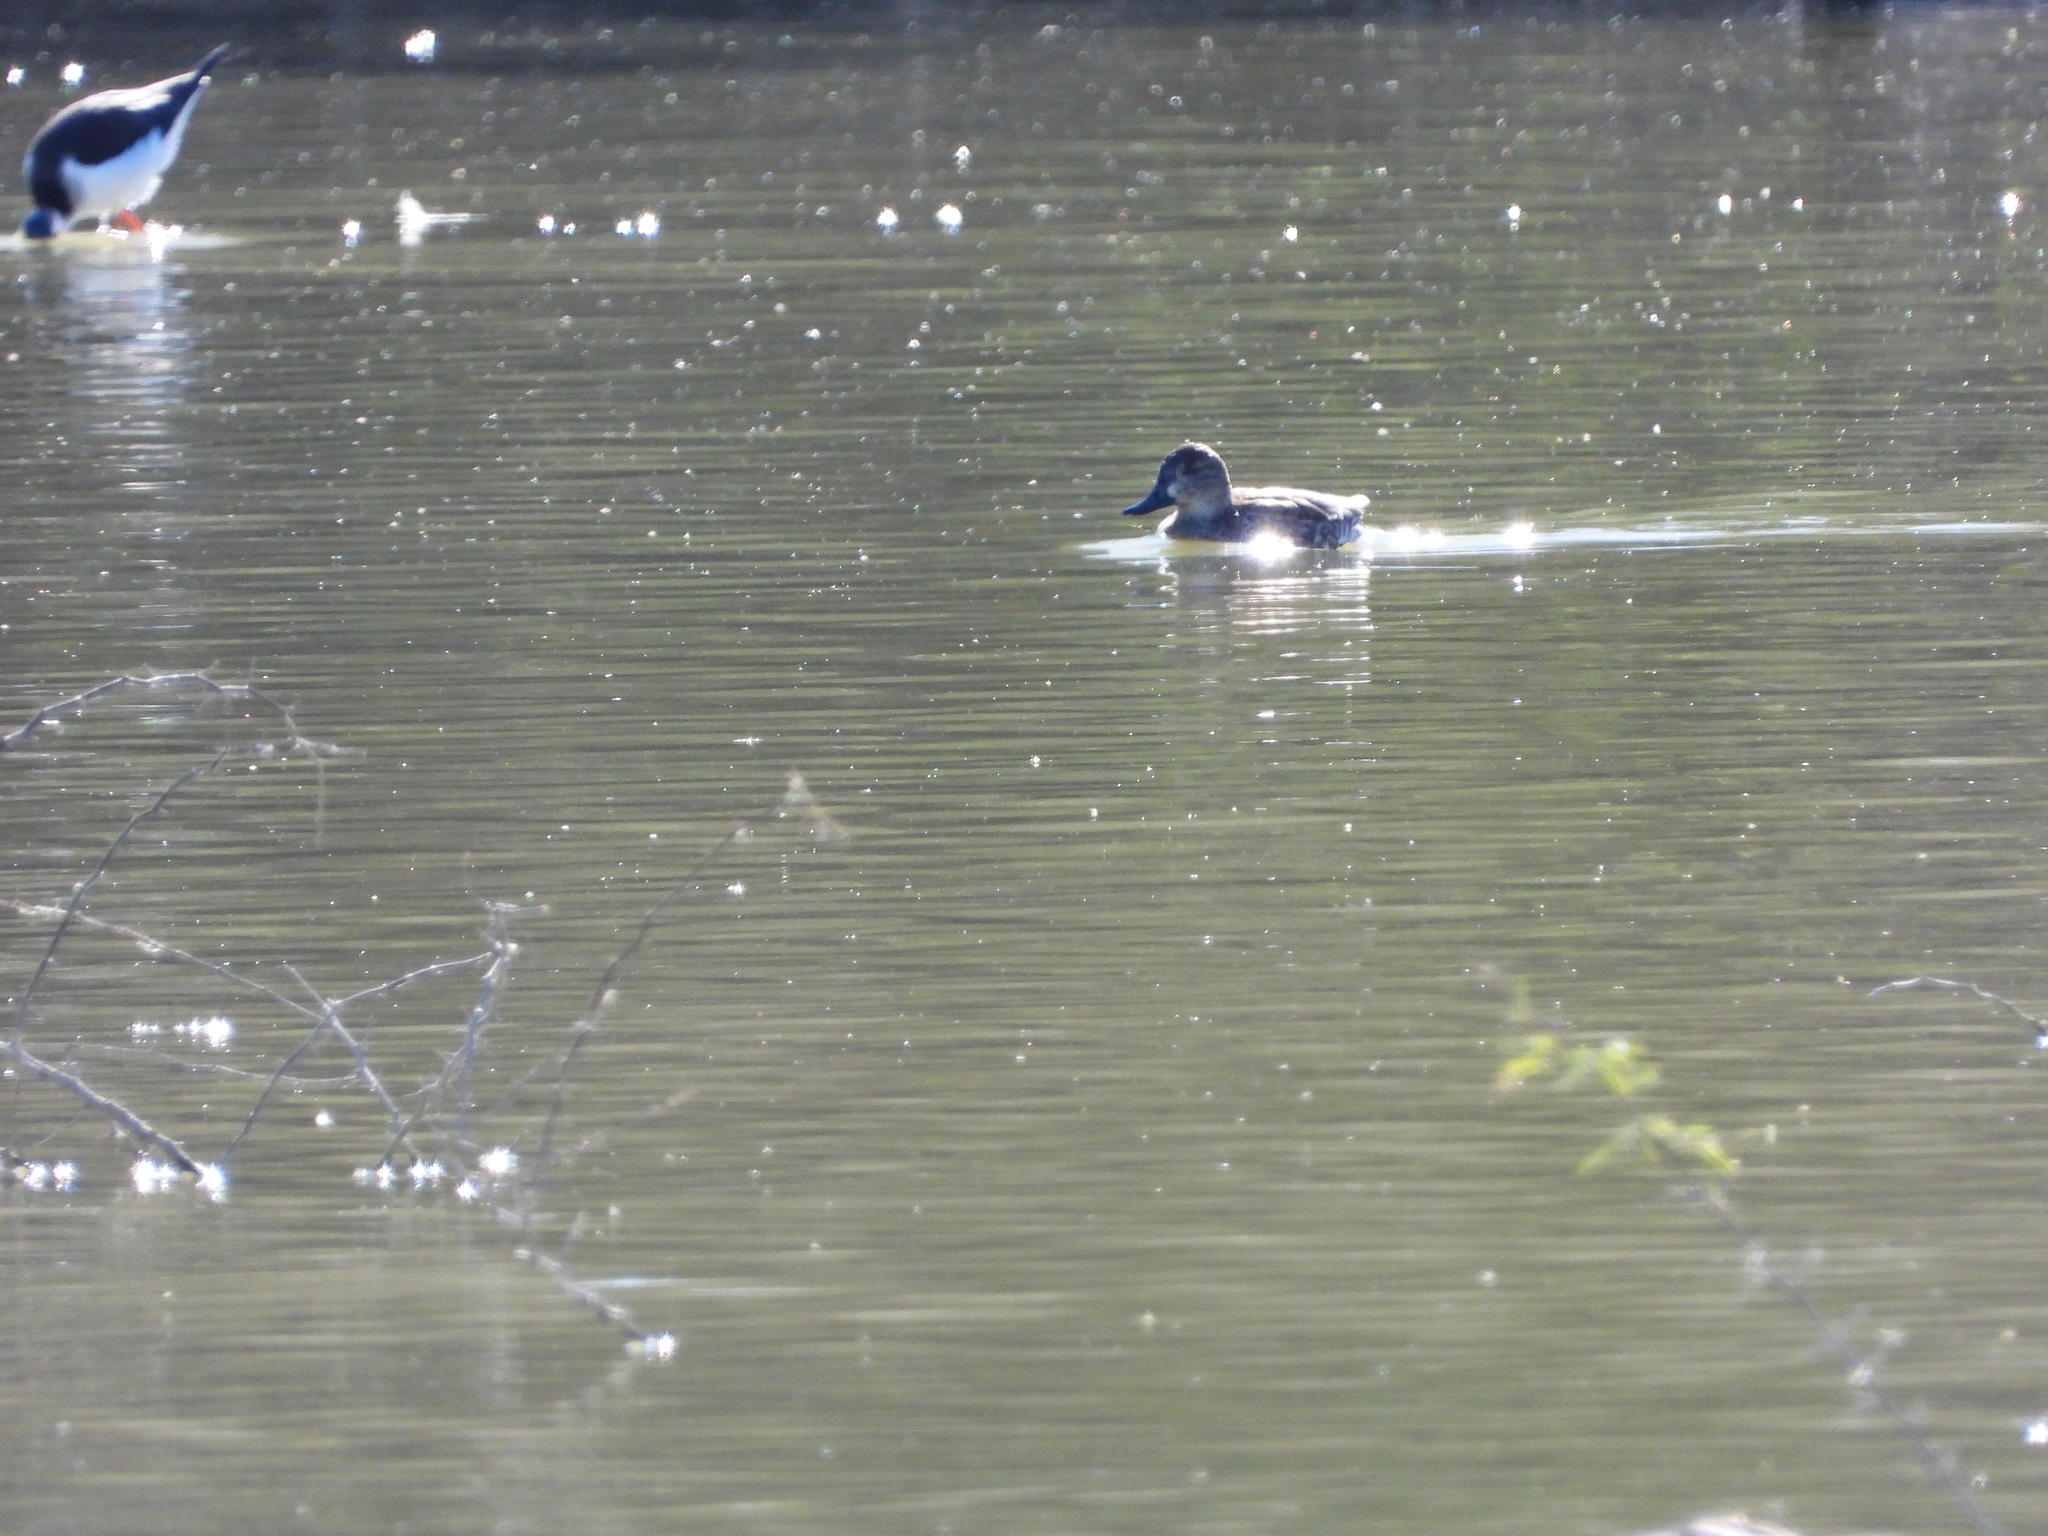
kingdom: Animalia
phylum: Chordata
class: Aves
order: Anseriformes
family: Anatidae
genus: Anas
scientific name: Anas crecca
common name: Eurasian teal
